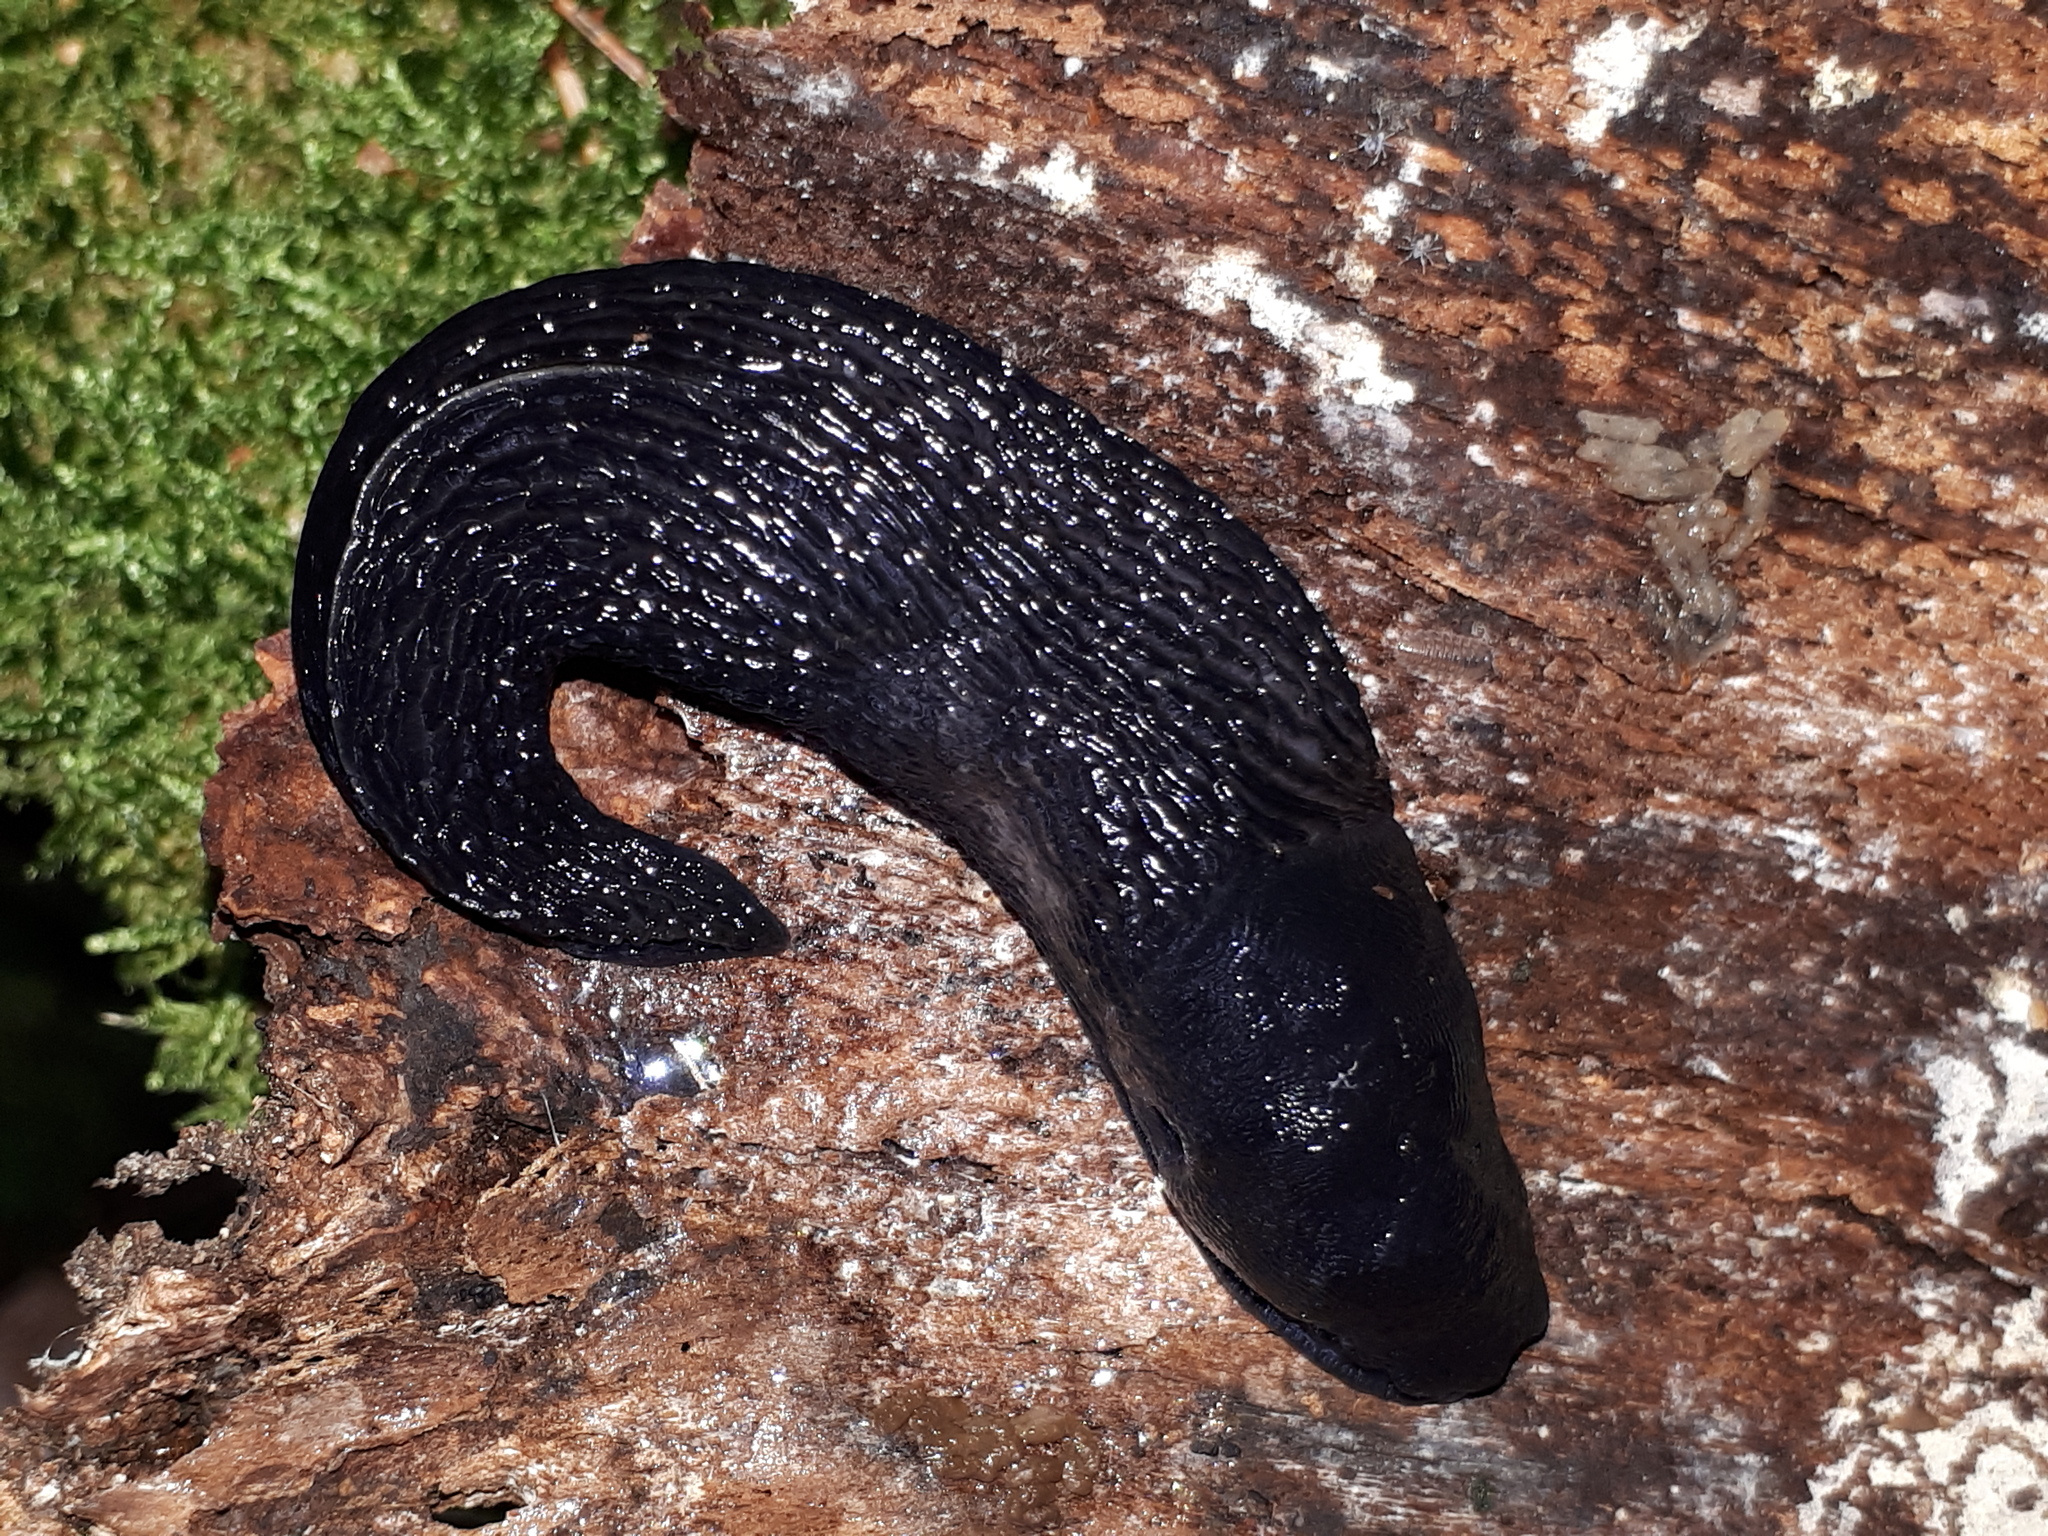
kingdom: Animalia
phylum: Mollusca
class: Gastropoda
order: Stylommatophora
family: Limacidae
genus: Limax
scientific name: Limax cinereoniger
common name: Ash-black slug
